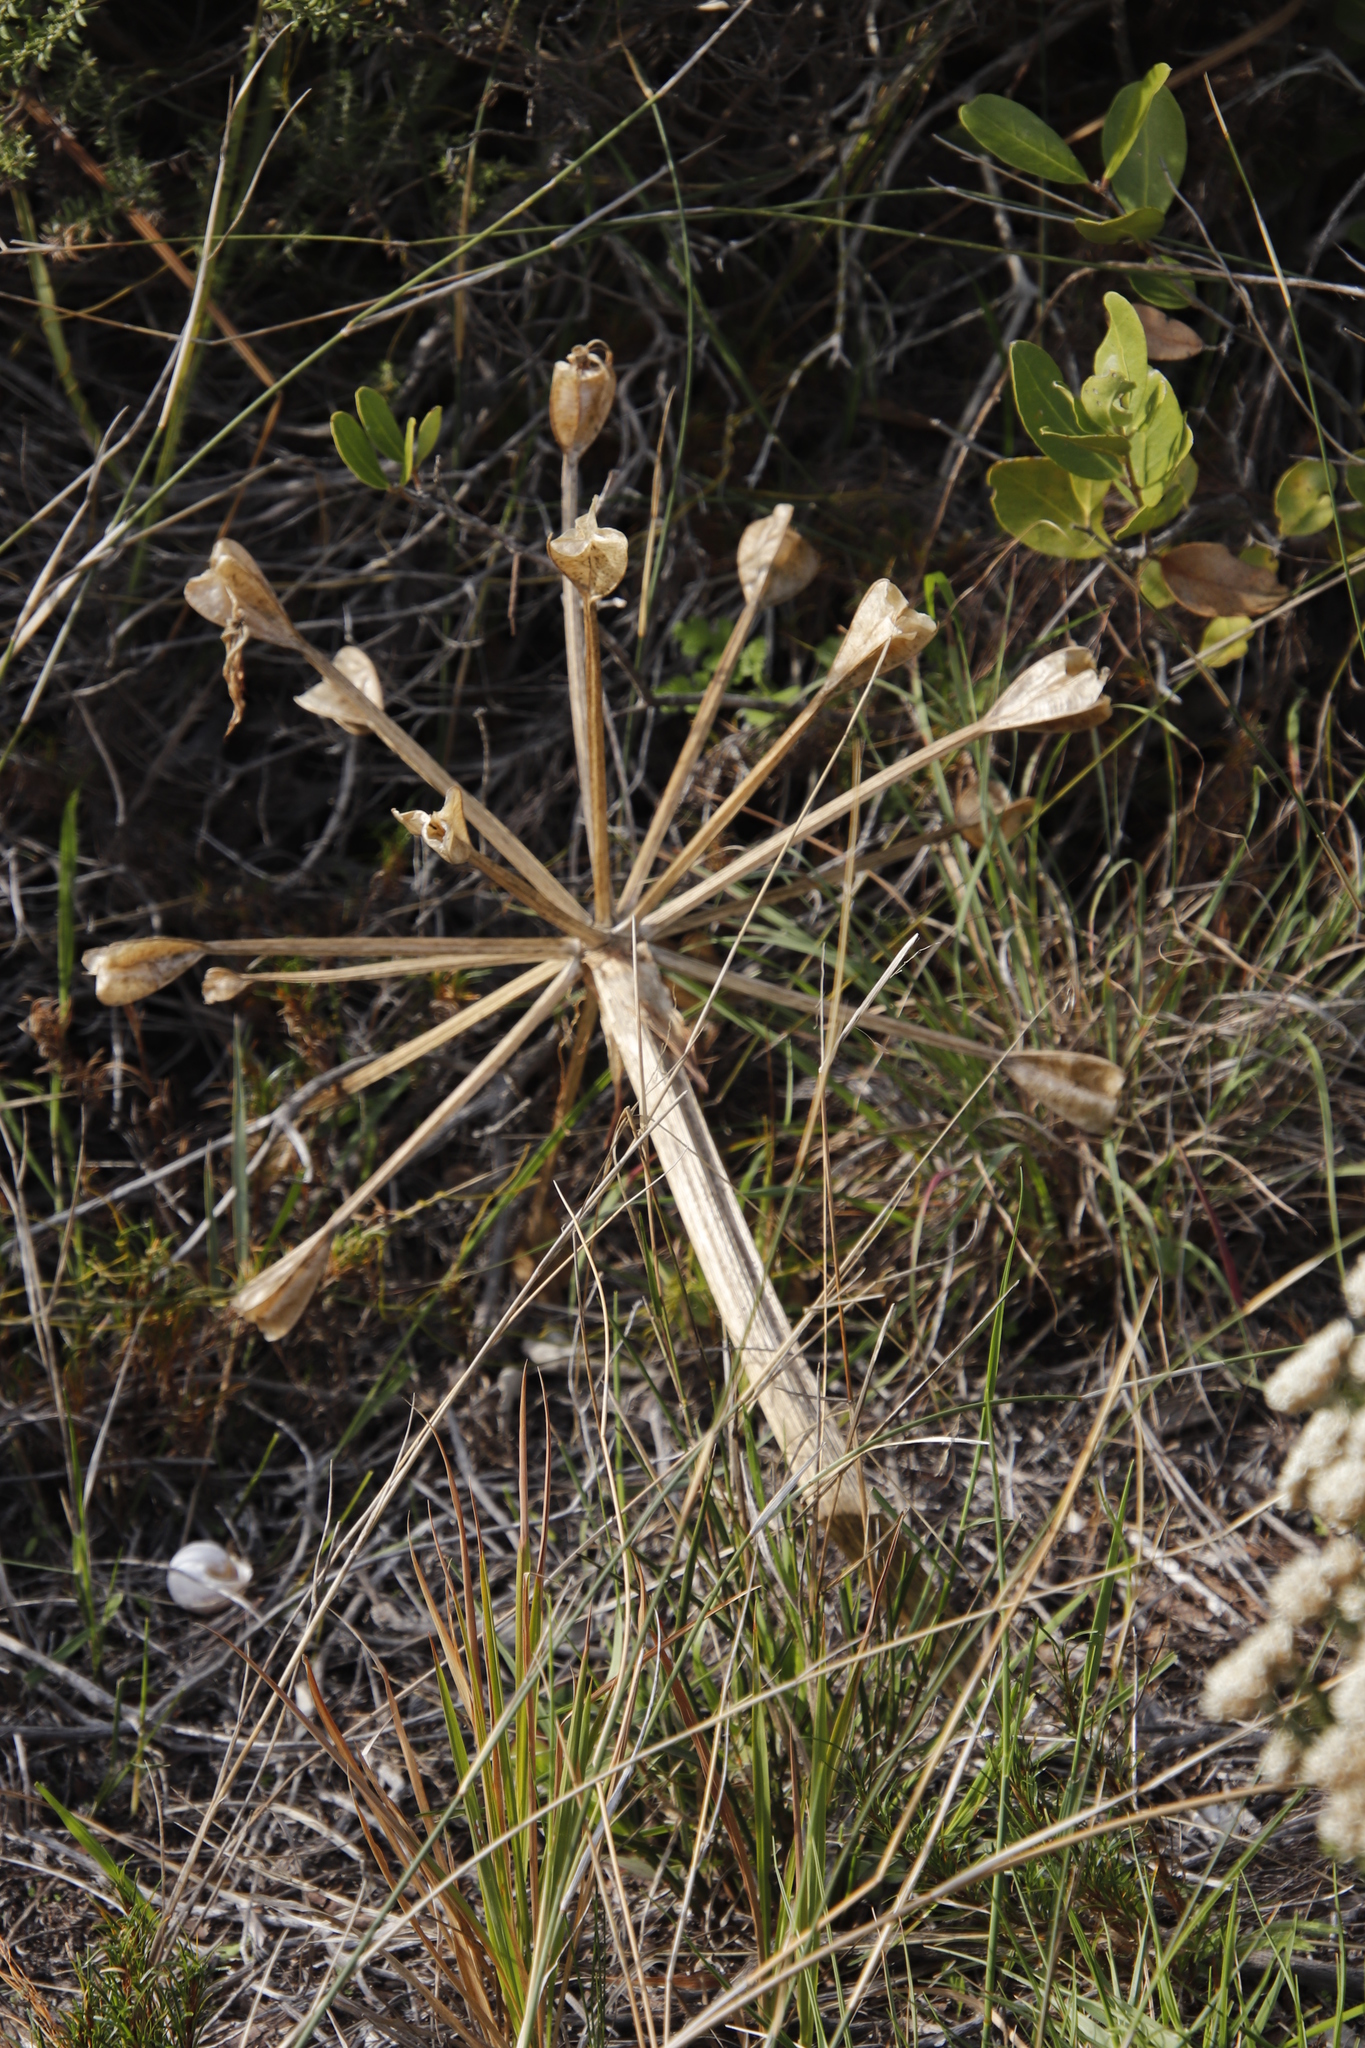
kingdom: Plantae
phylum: Tracheophyta
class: Liliopsida
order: Asparagales
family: Amaryllidaceae
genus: Brunsvigia
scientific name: Brunsvigia orientalis
